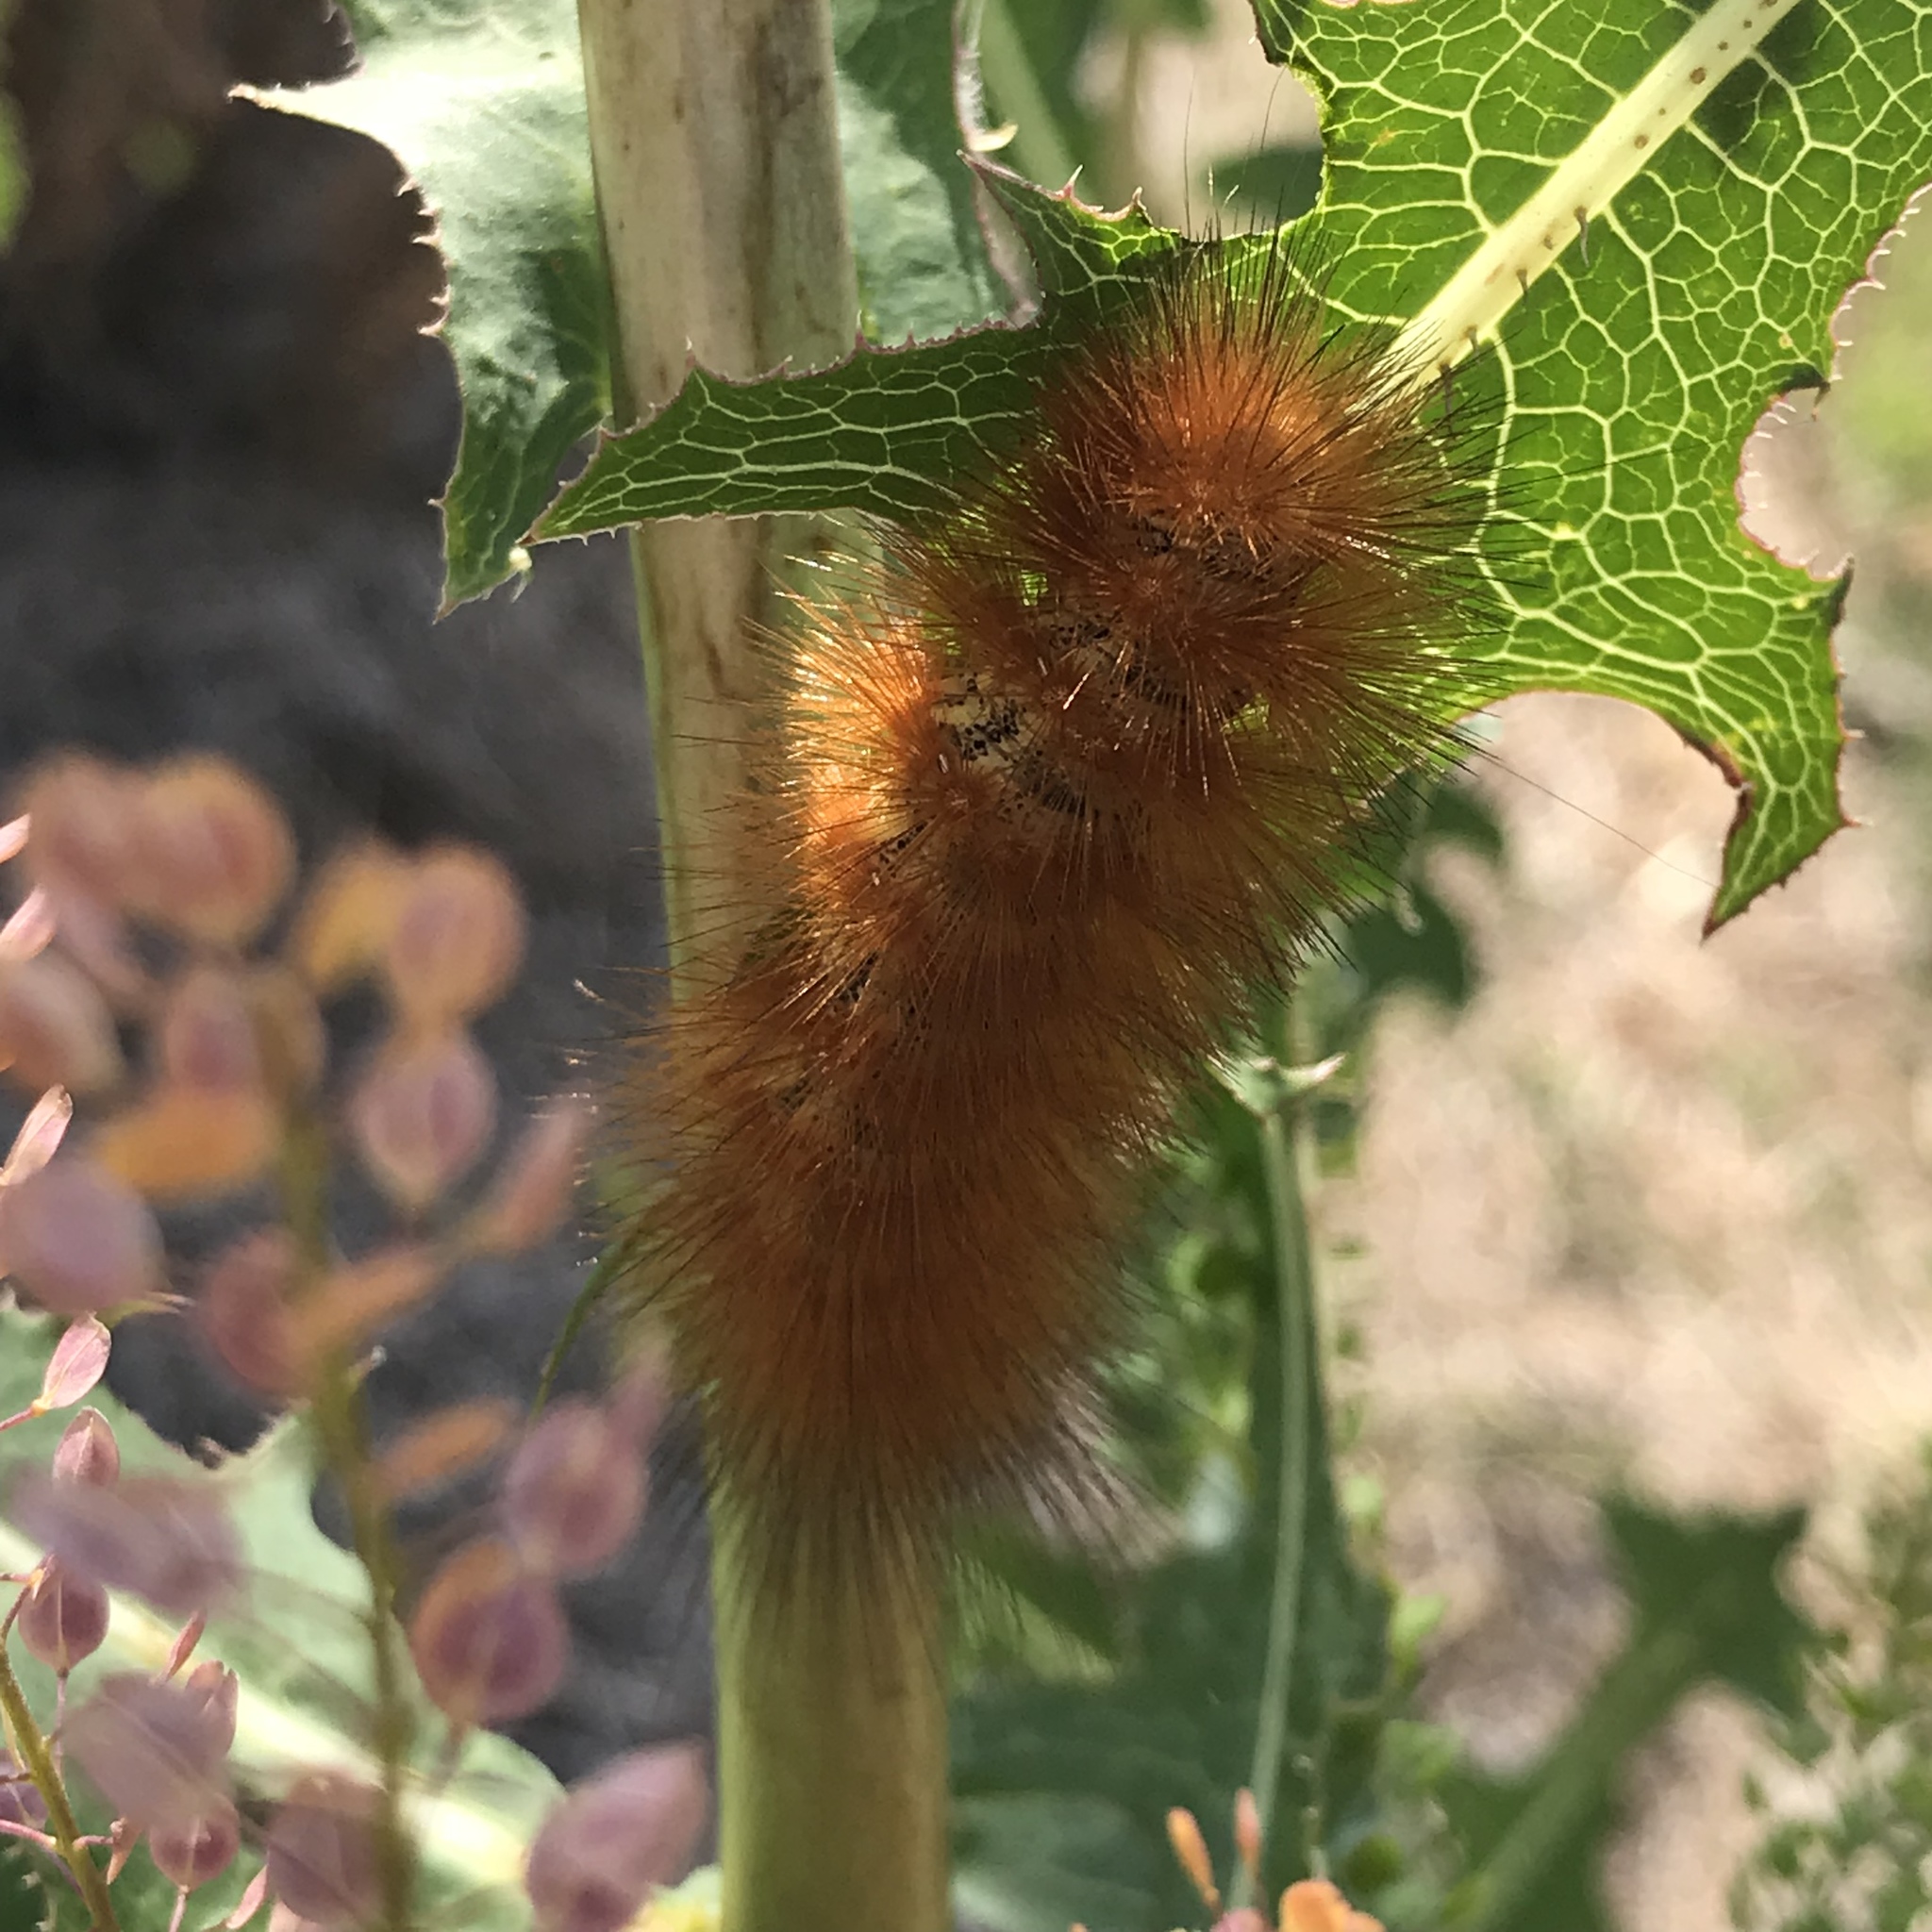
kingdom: Animalia
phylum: Arthropoda
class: Insecta
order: Lepidoptera
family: Erebidae
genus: Estigmene
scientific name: Estigmene acrea
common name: Salt marsh moth
